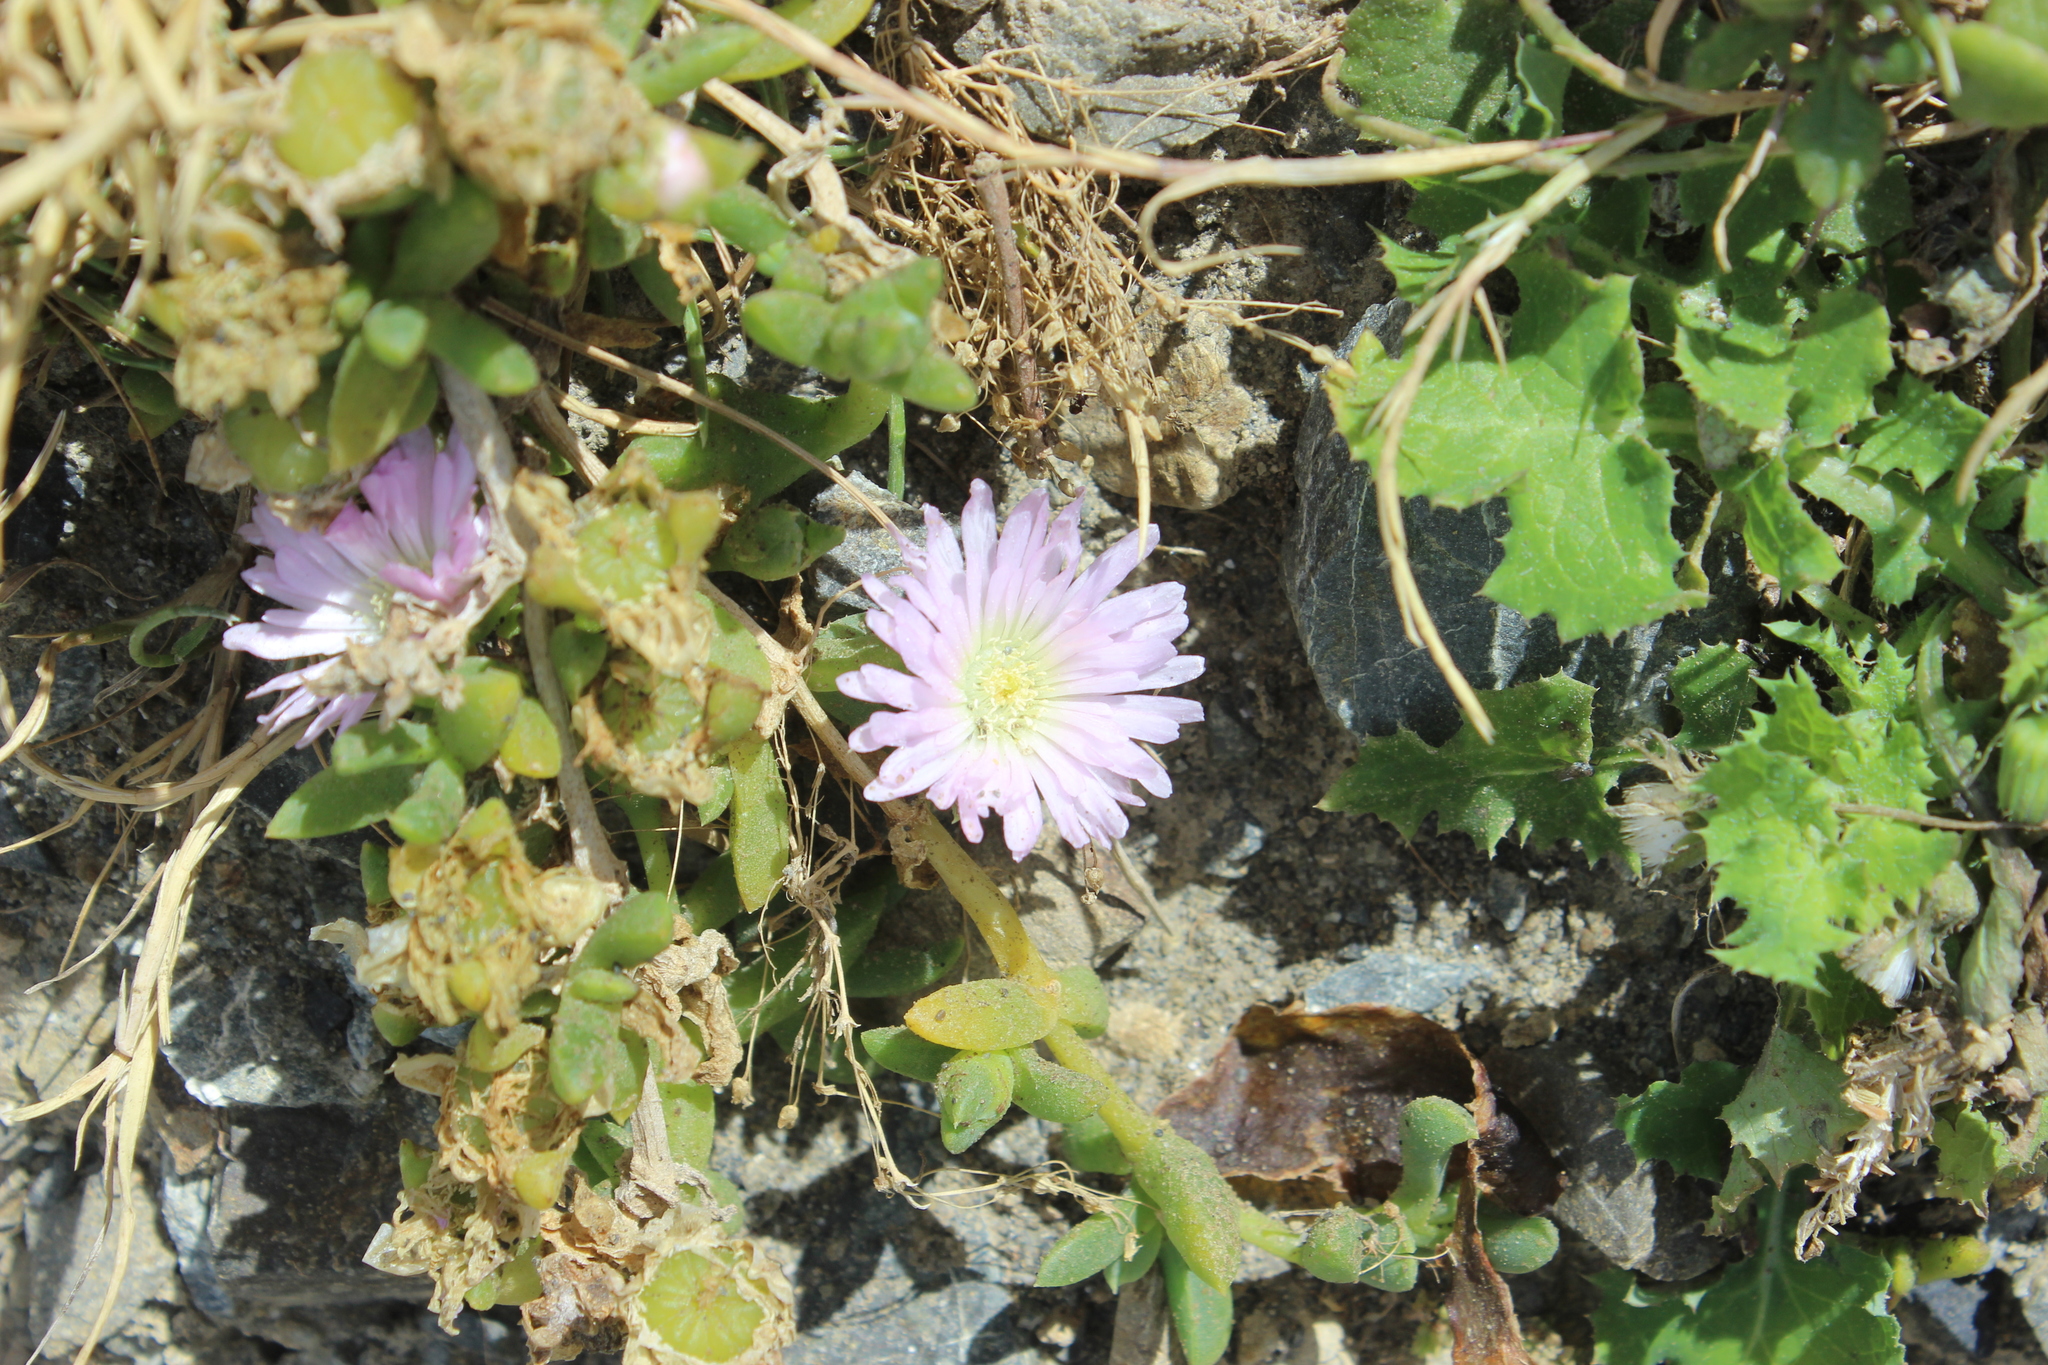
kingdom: Plantae
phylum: Tracheophyta
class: Magnoliopsida
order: Caryophyllales
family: Aizoaceae
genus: Disphyma
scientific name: Disphyma australe
